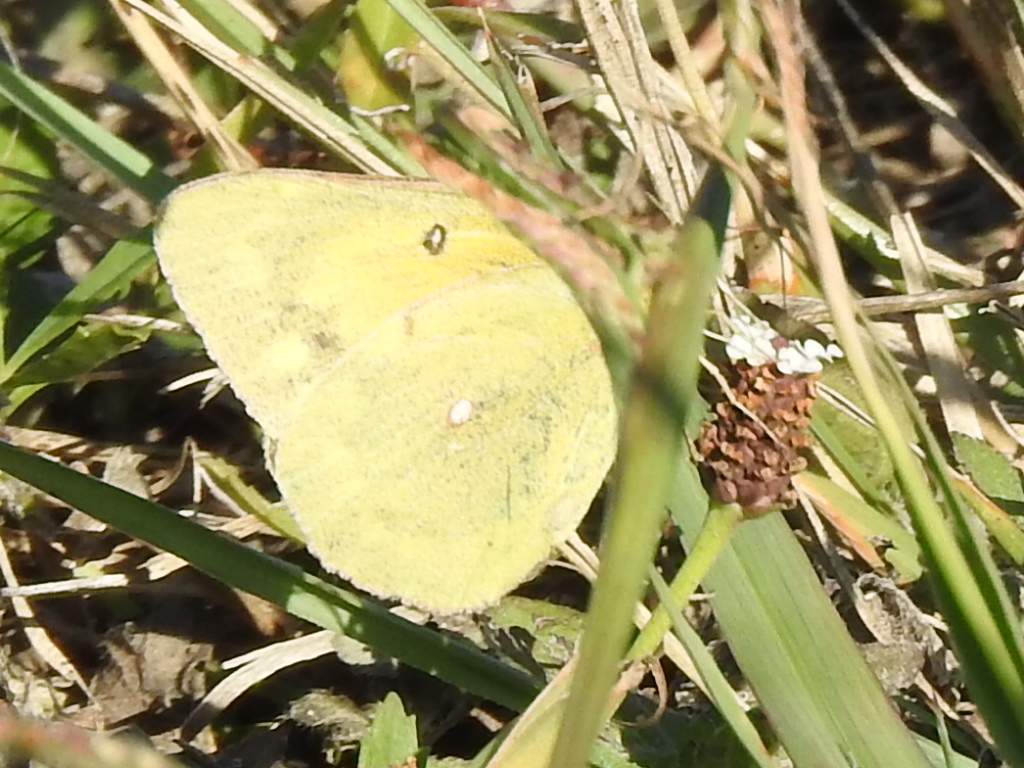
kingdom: Animalia
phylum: Arthropoda
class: Insecta
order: Lepidoptera
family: Pieridae
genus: Colias
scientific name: Colias eurytheme
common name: Alfalfa butterfly
